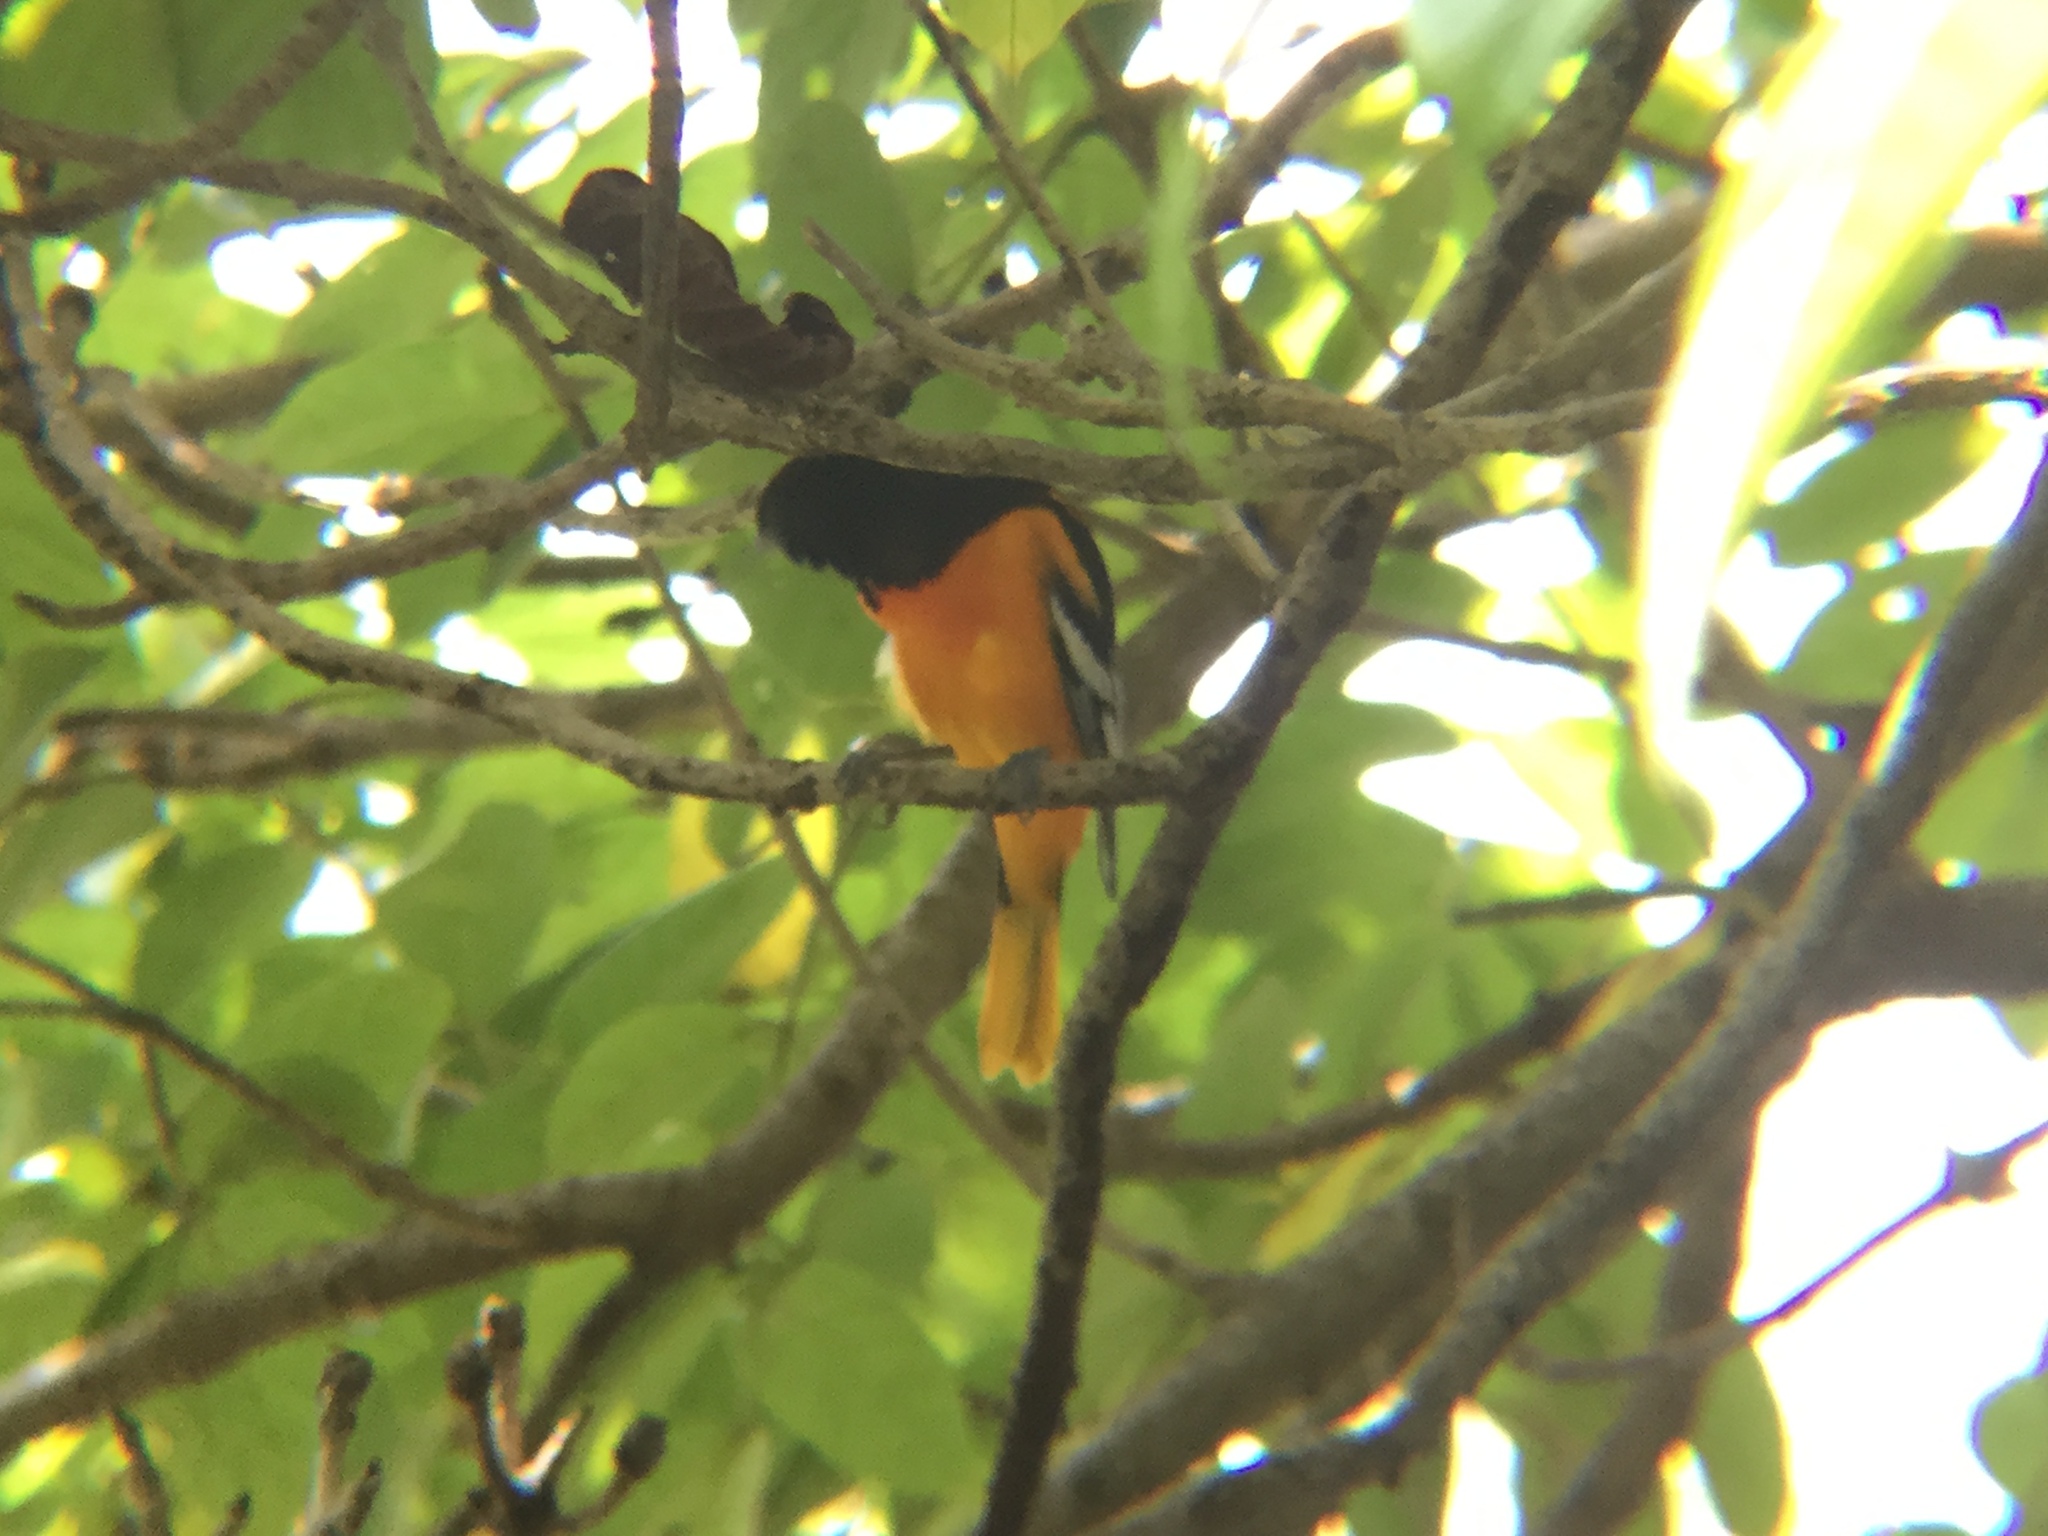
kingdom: Animalia
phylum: Chordata
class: Aves
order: Passeriformes
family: Icteridae
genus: Icterus
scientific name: Icterus galbula
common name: Baltimore oriole
